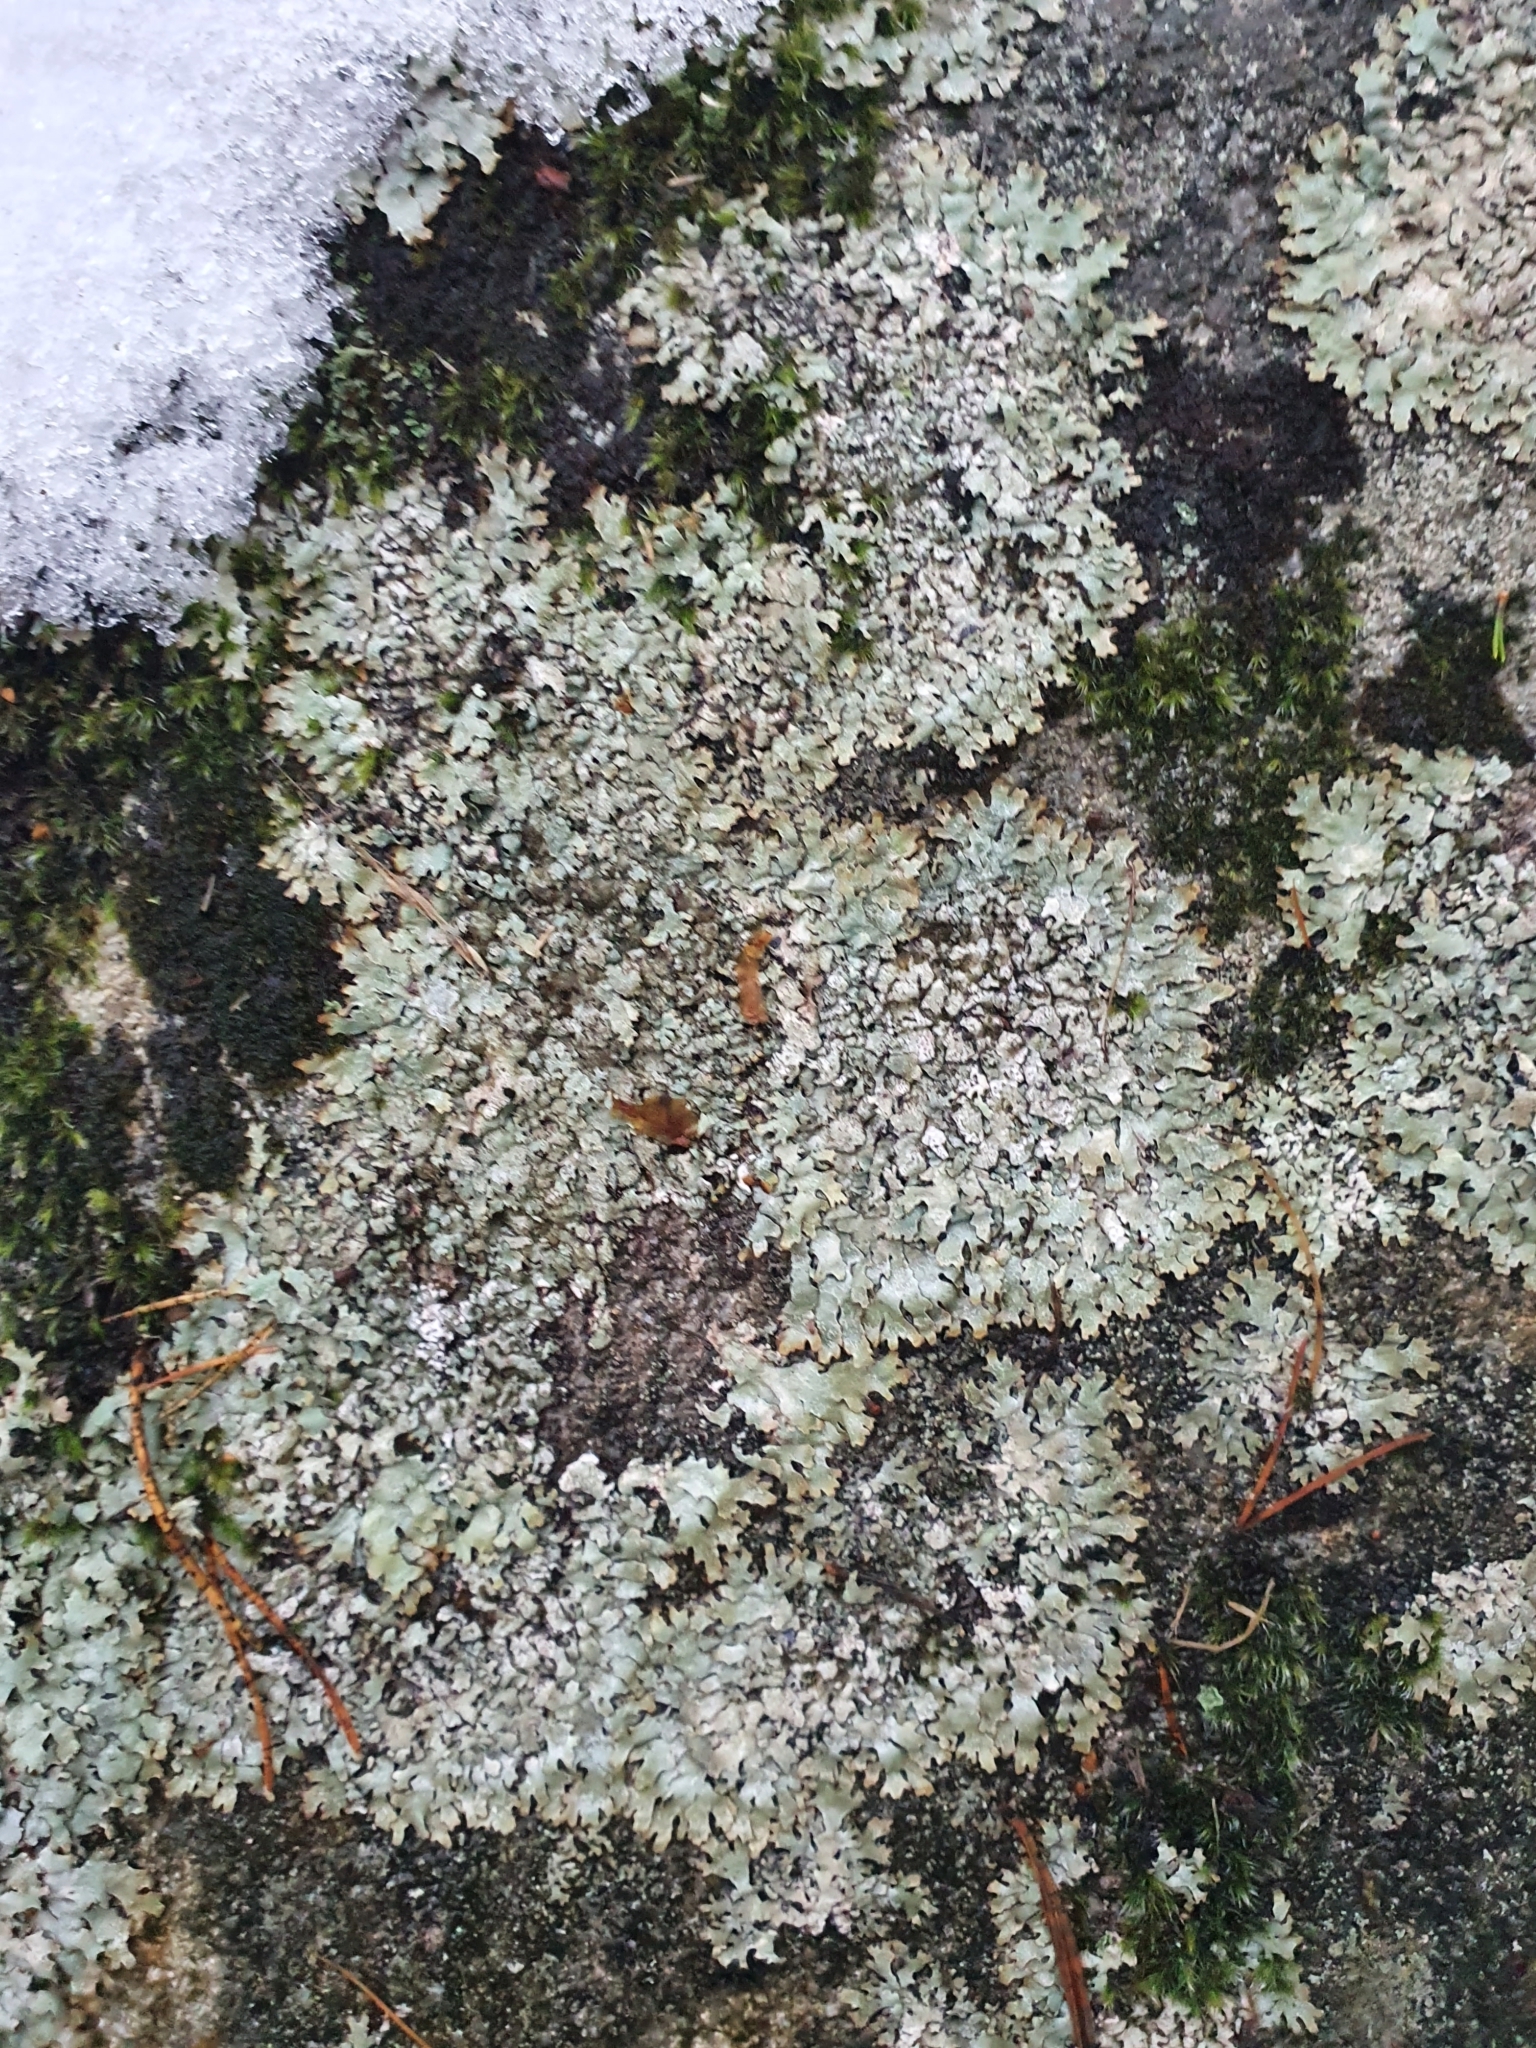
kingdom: Fungi
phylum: Ascomycota
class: Lecanoromycetes
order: Lecanorales
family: Parmeliaceae
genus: Parmelia
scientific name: Parmelia saxatilis
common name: Salted shield lichen
